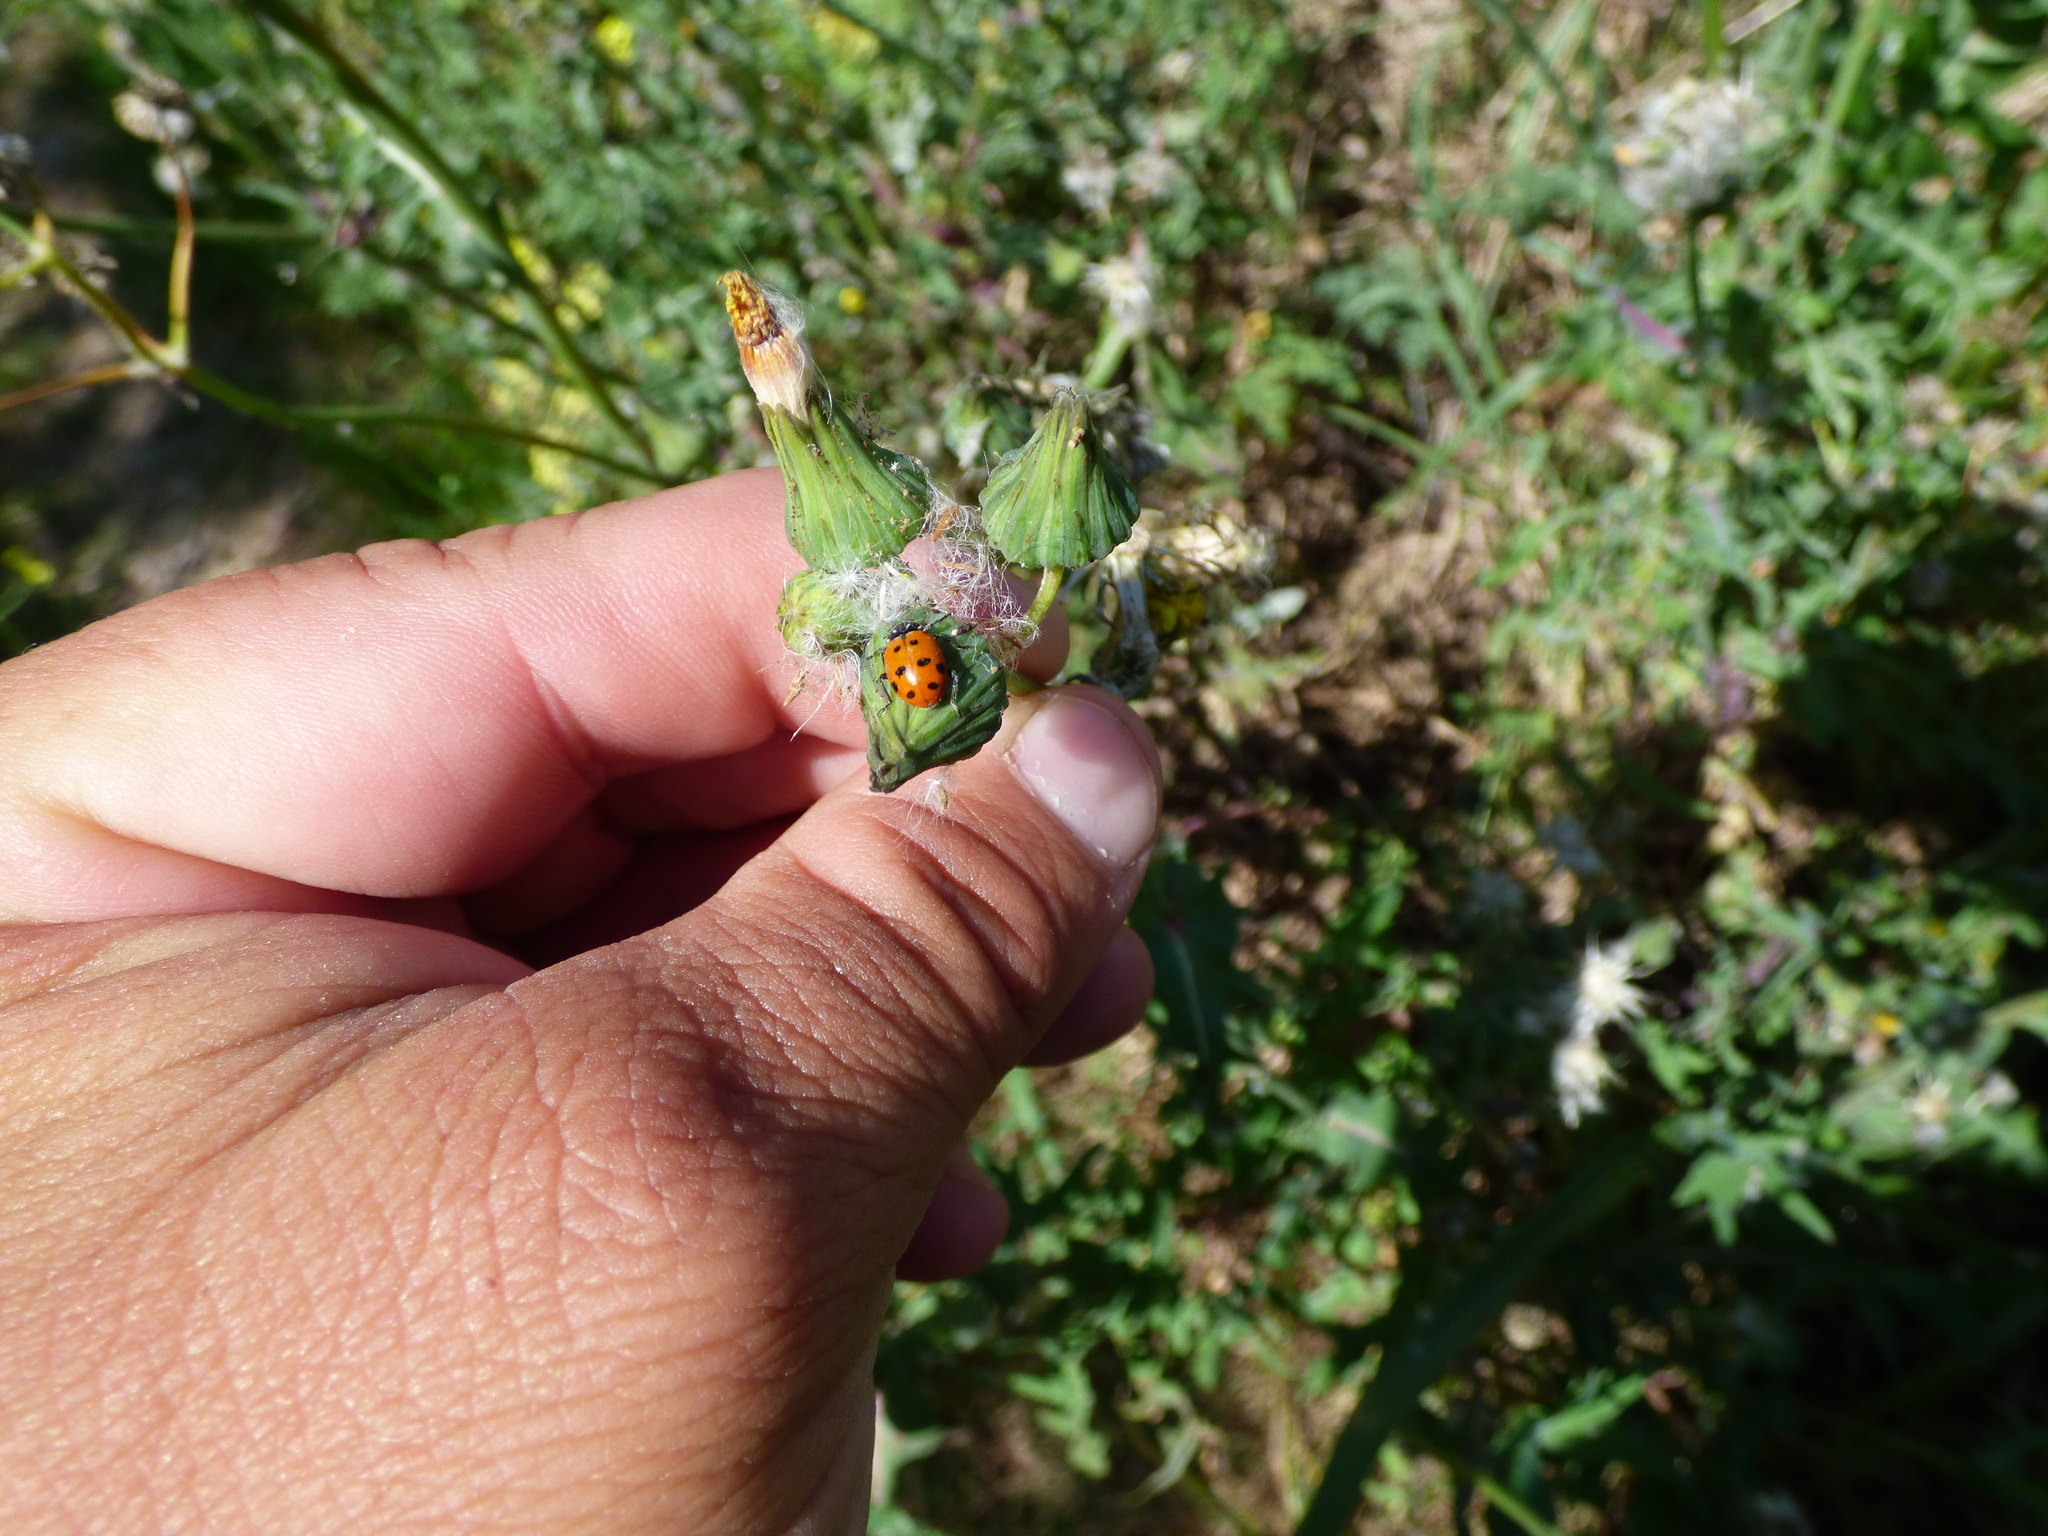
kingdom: Animalia
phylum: Arthropoda
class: Insecta
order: Coleoptera
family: Coccinellidae
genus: Hippodamia
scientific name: Hippodamia convergens
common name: Convergent lady beetle
